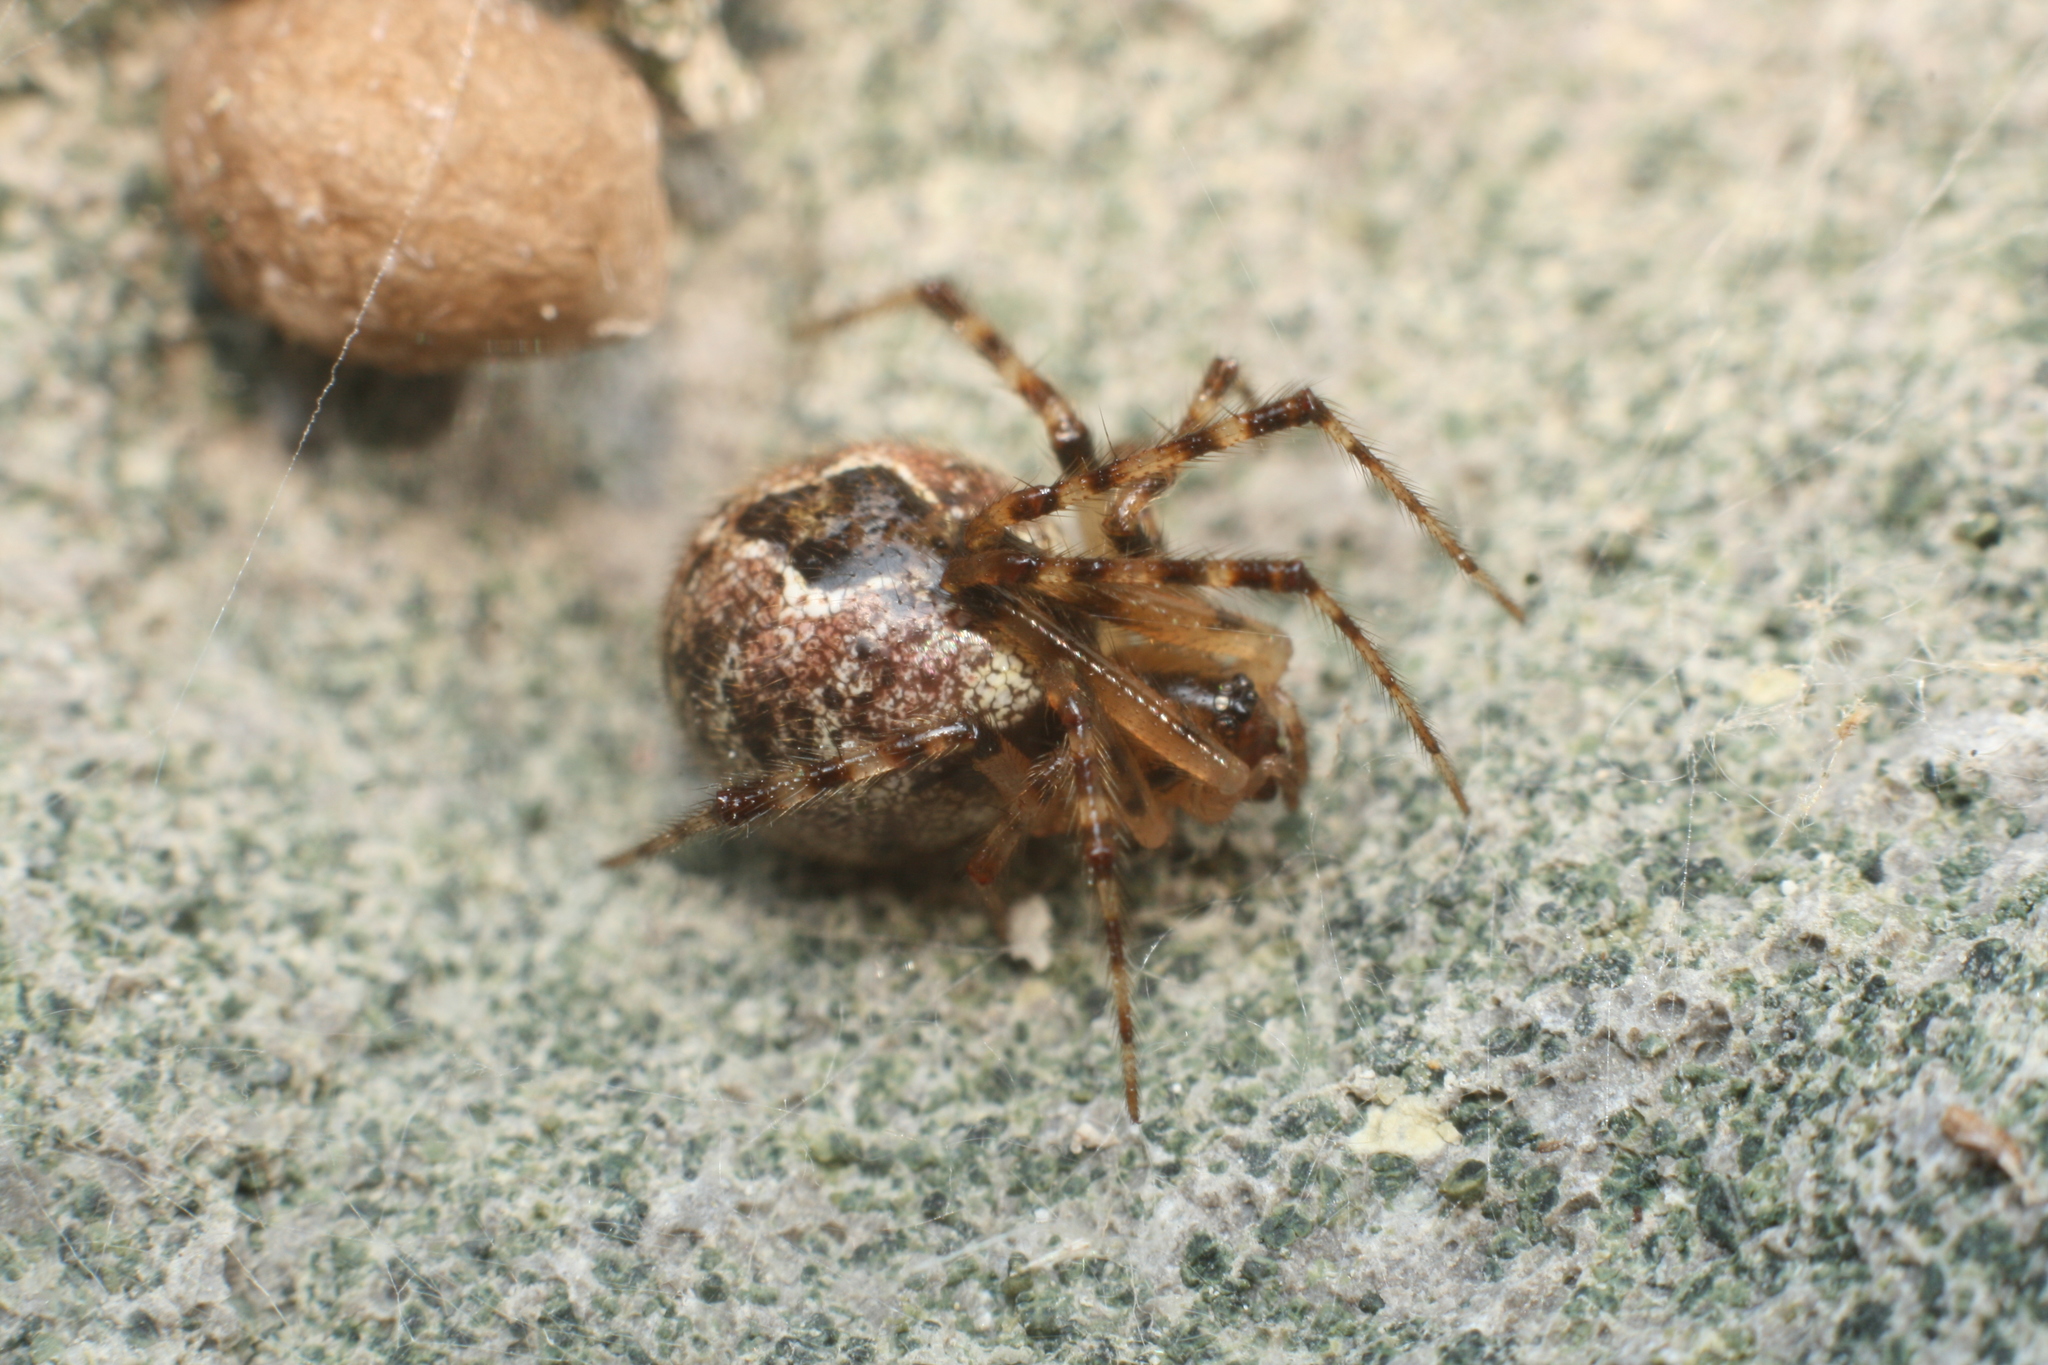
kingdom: Animalia
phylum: Arthropoda
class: Arachnida
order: Araneae
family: Theridiidae
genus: Cryptachaea
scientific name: Cryptachaea veruculata
